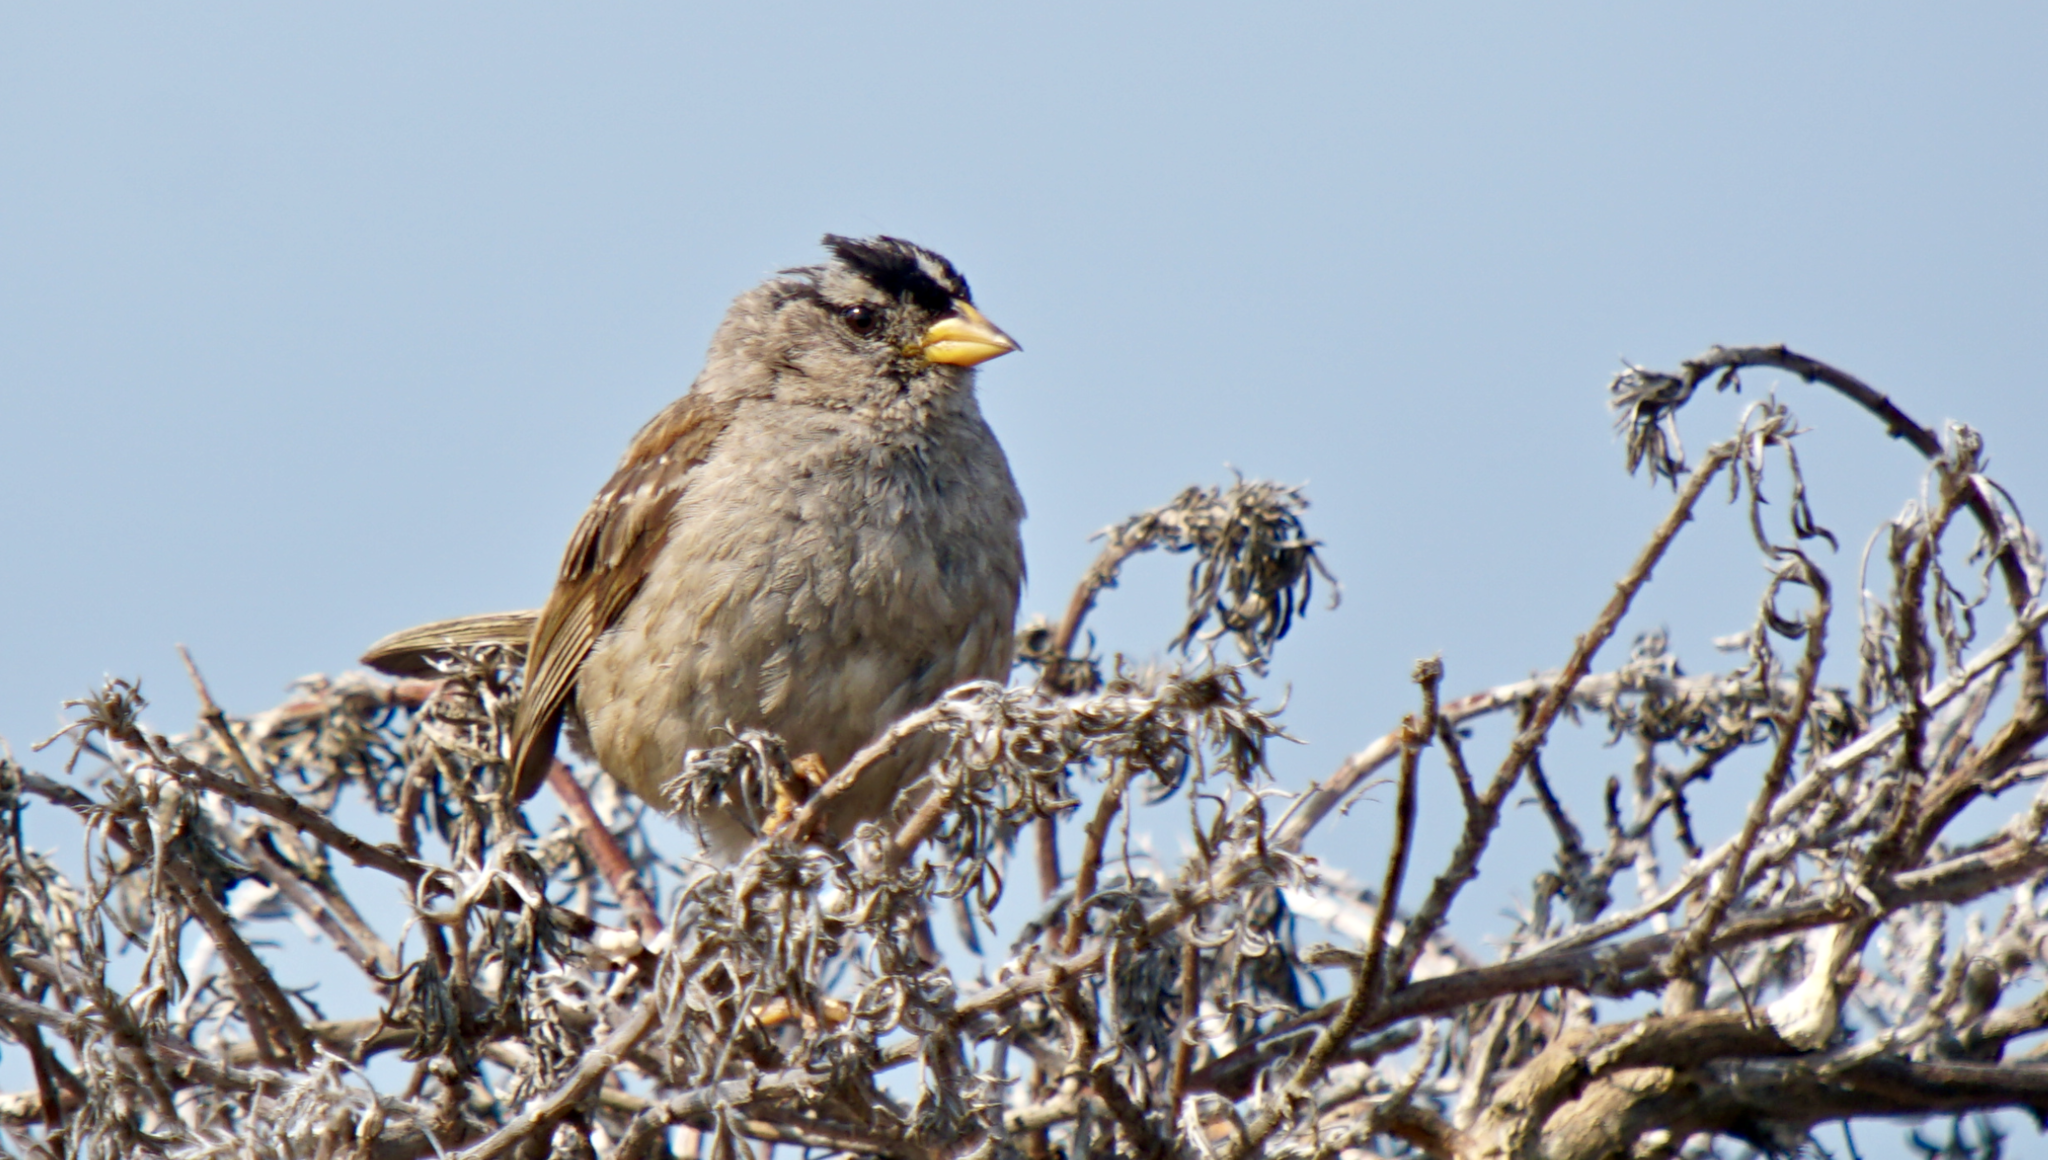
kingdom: Animalia
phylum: Chordata
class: Aves
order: Passeriformes
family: Passerellidae
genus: Zonotrichia
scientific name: Zonotrichia leucophrys
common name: White-crowned sparrow
